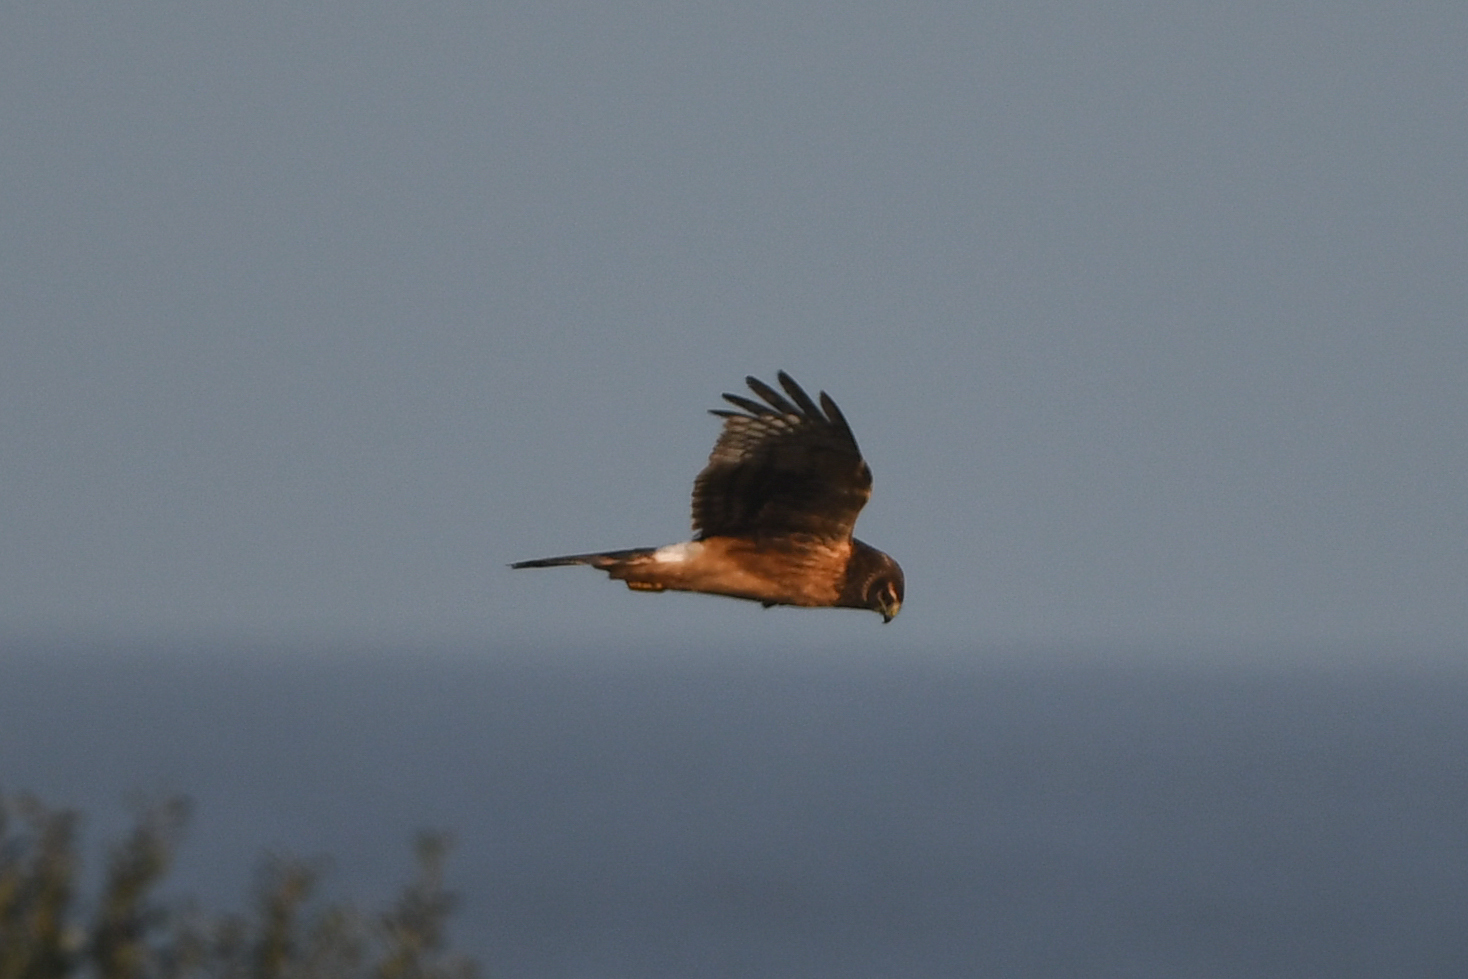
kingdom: Animalia
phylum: Chordata
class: Aves
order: Accipitriformes
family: Accipitridae
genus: Circus
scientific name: Circus cyaneus
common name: Hen harrier
